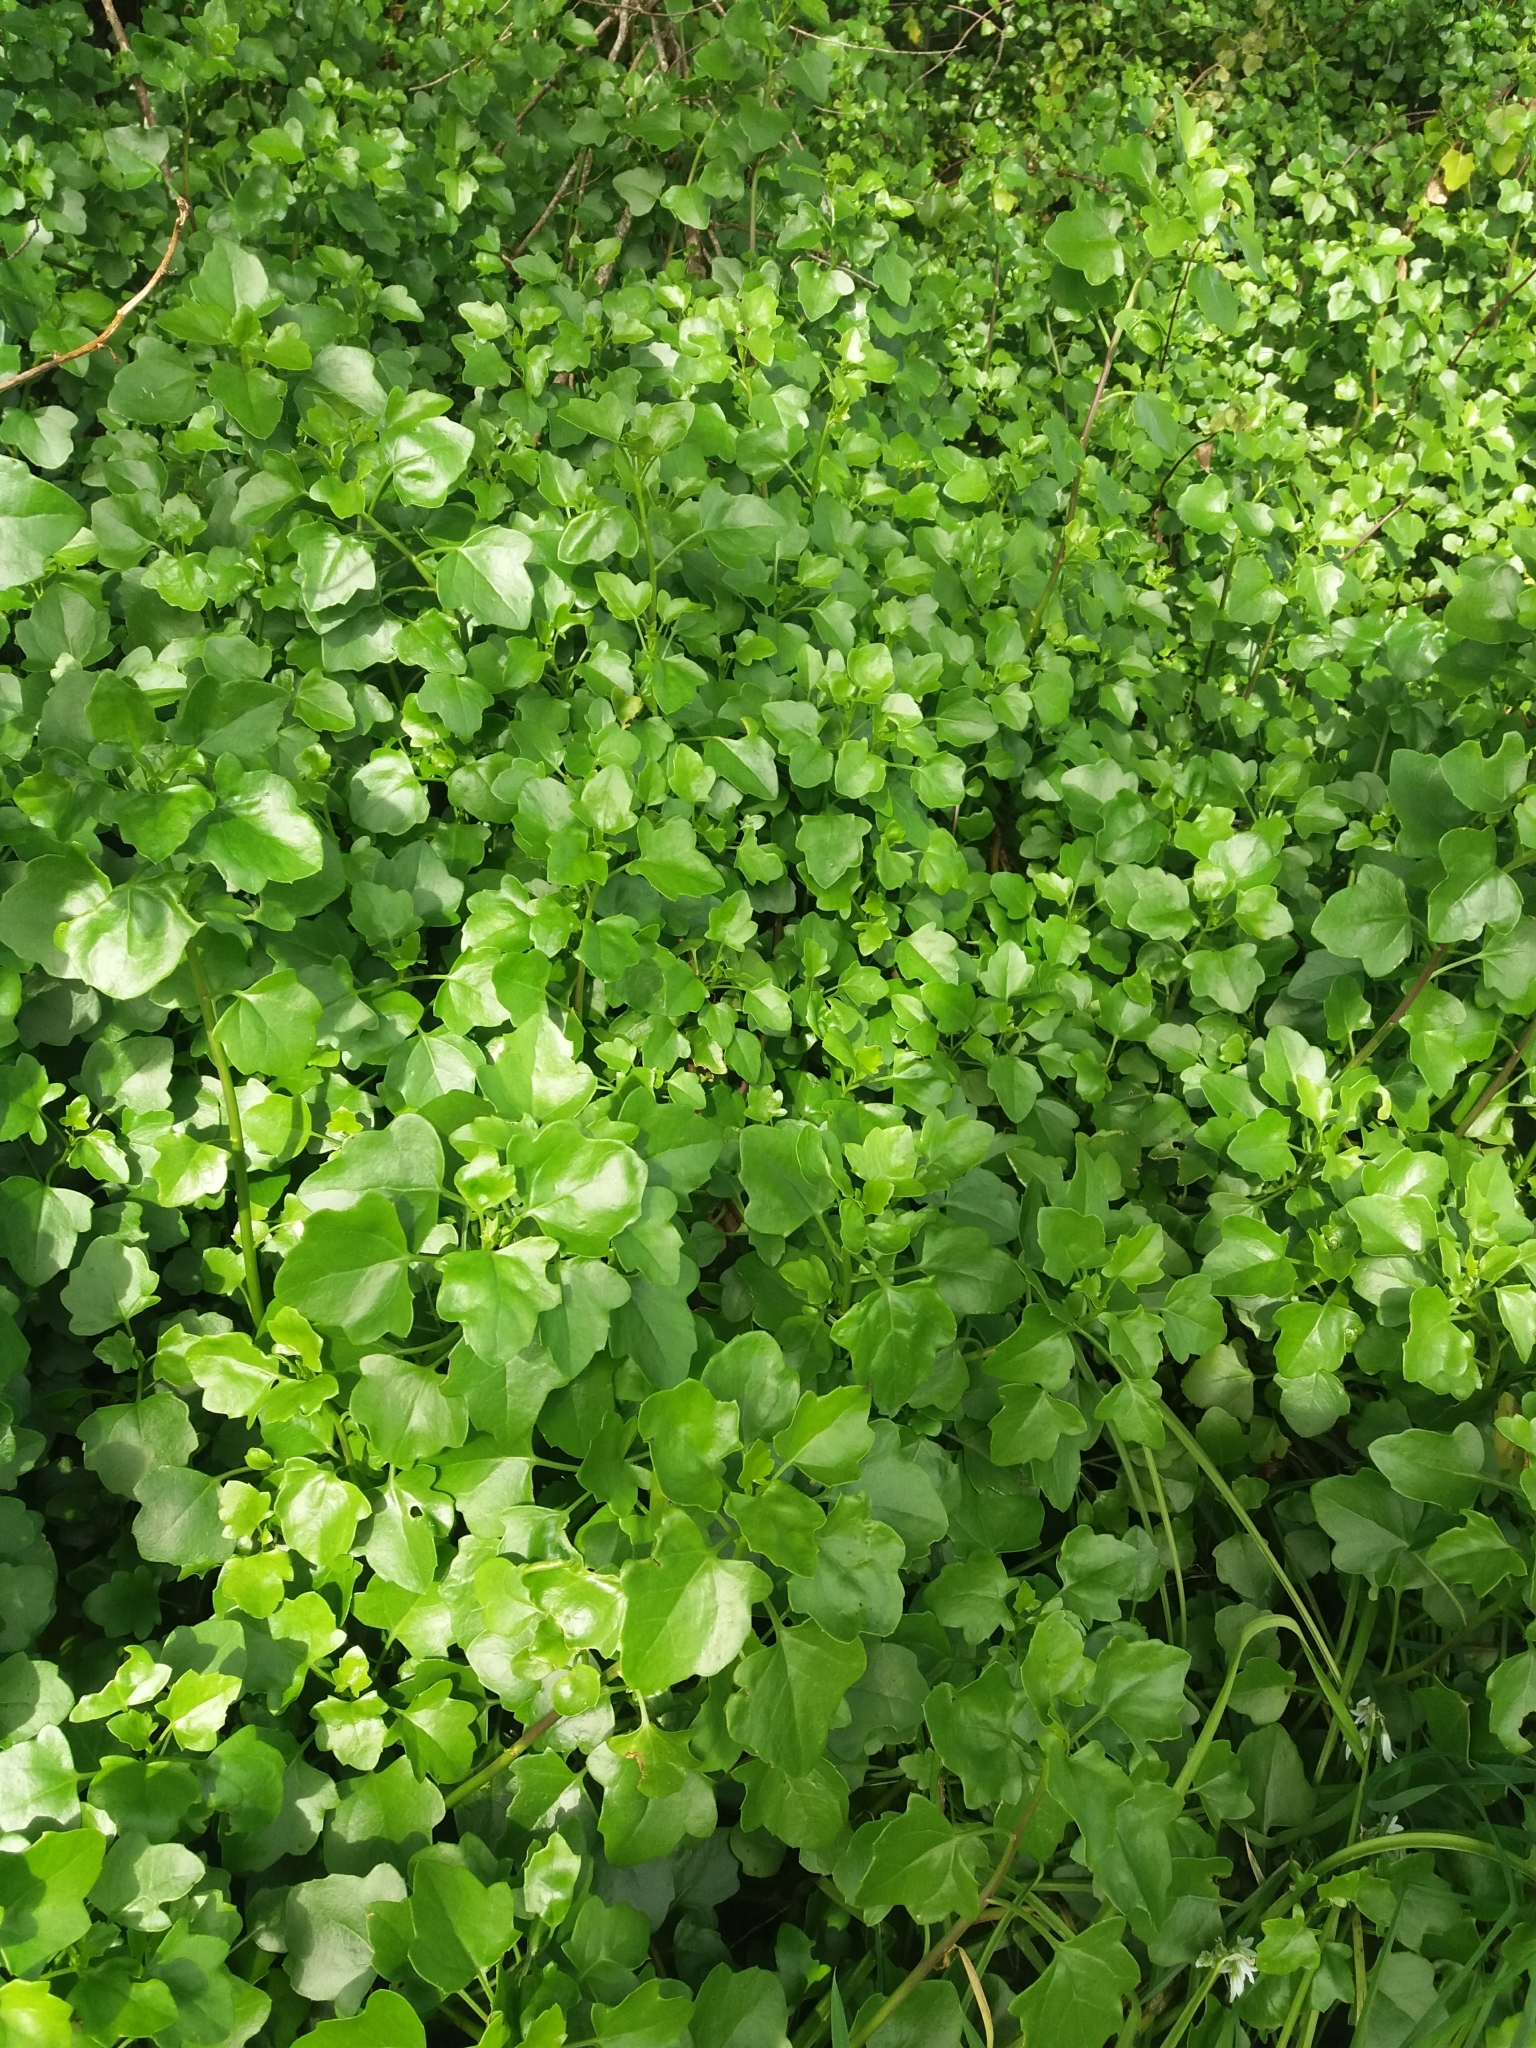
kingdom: Plantae
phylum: Tracheophyta
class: Magnoliopsida
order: Asterales
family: Asteraceae
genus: Senecio
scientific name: Senecio angulatus
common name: Climbing groundsel
